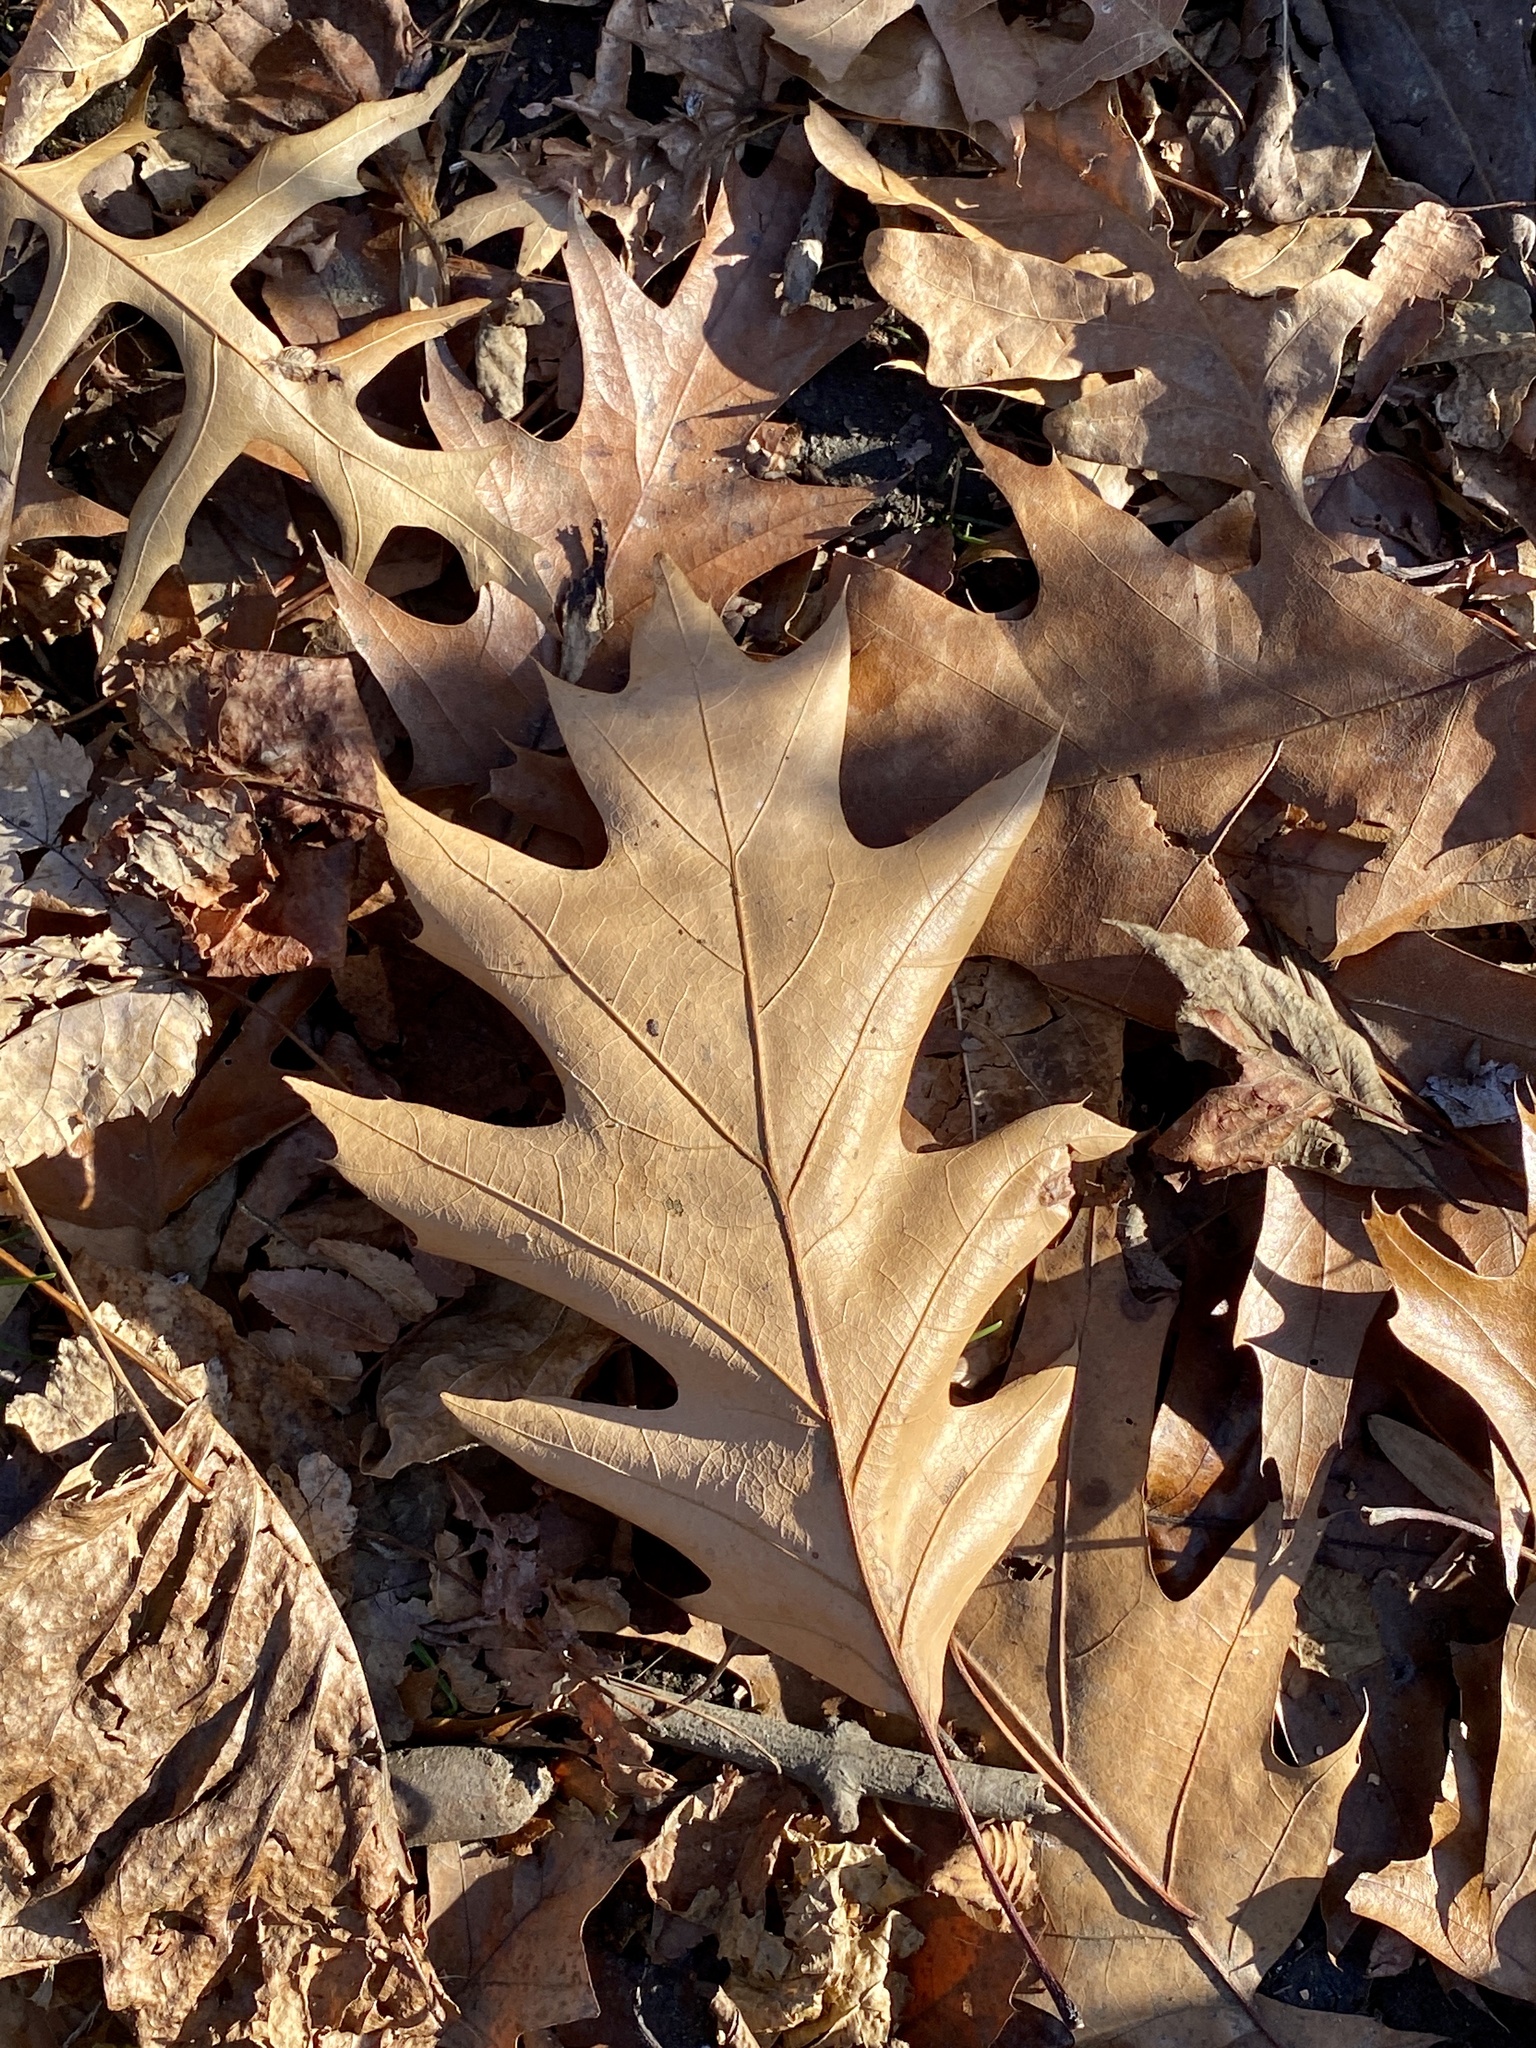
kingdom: Plantae
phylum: Tracheophyta
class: Magnoliopsida
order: Fagales
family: Fagaceae
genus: Quercus
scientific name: Quercus rubra
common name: Red oak
